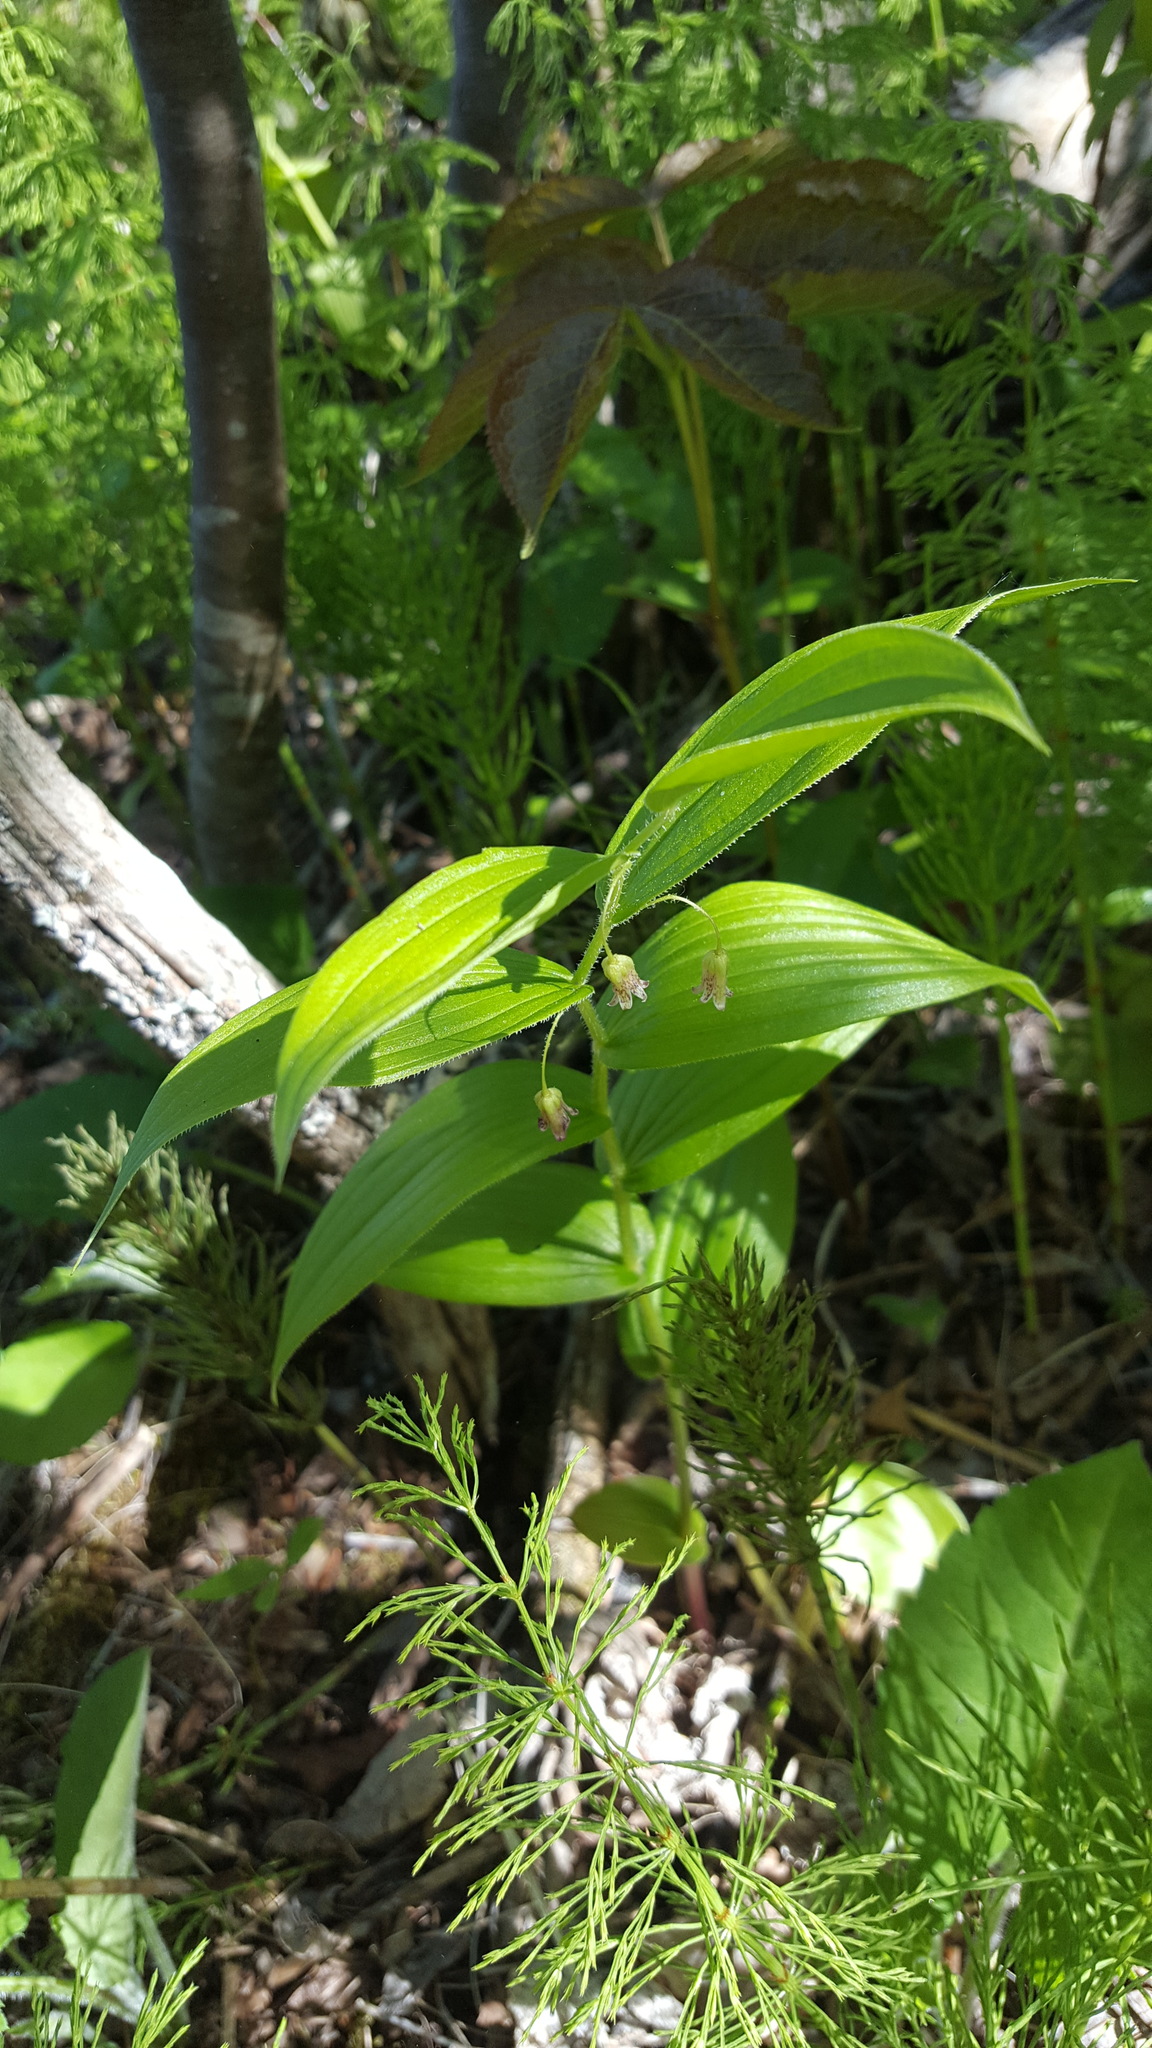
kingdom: Plantae
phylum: Tracheophyta
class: Liliopsida
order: Liliales
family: Liliaceae
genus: Streptopus
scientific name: Streptopus lanceolatus
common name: Rose mandarin
